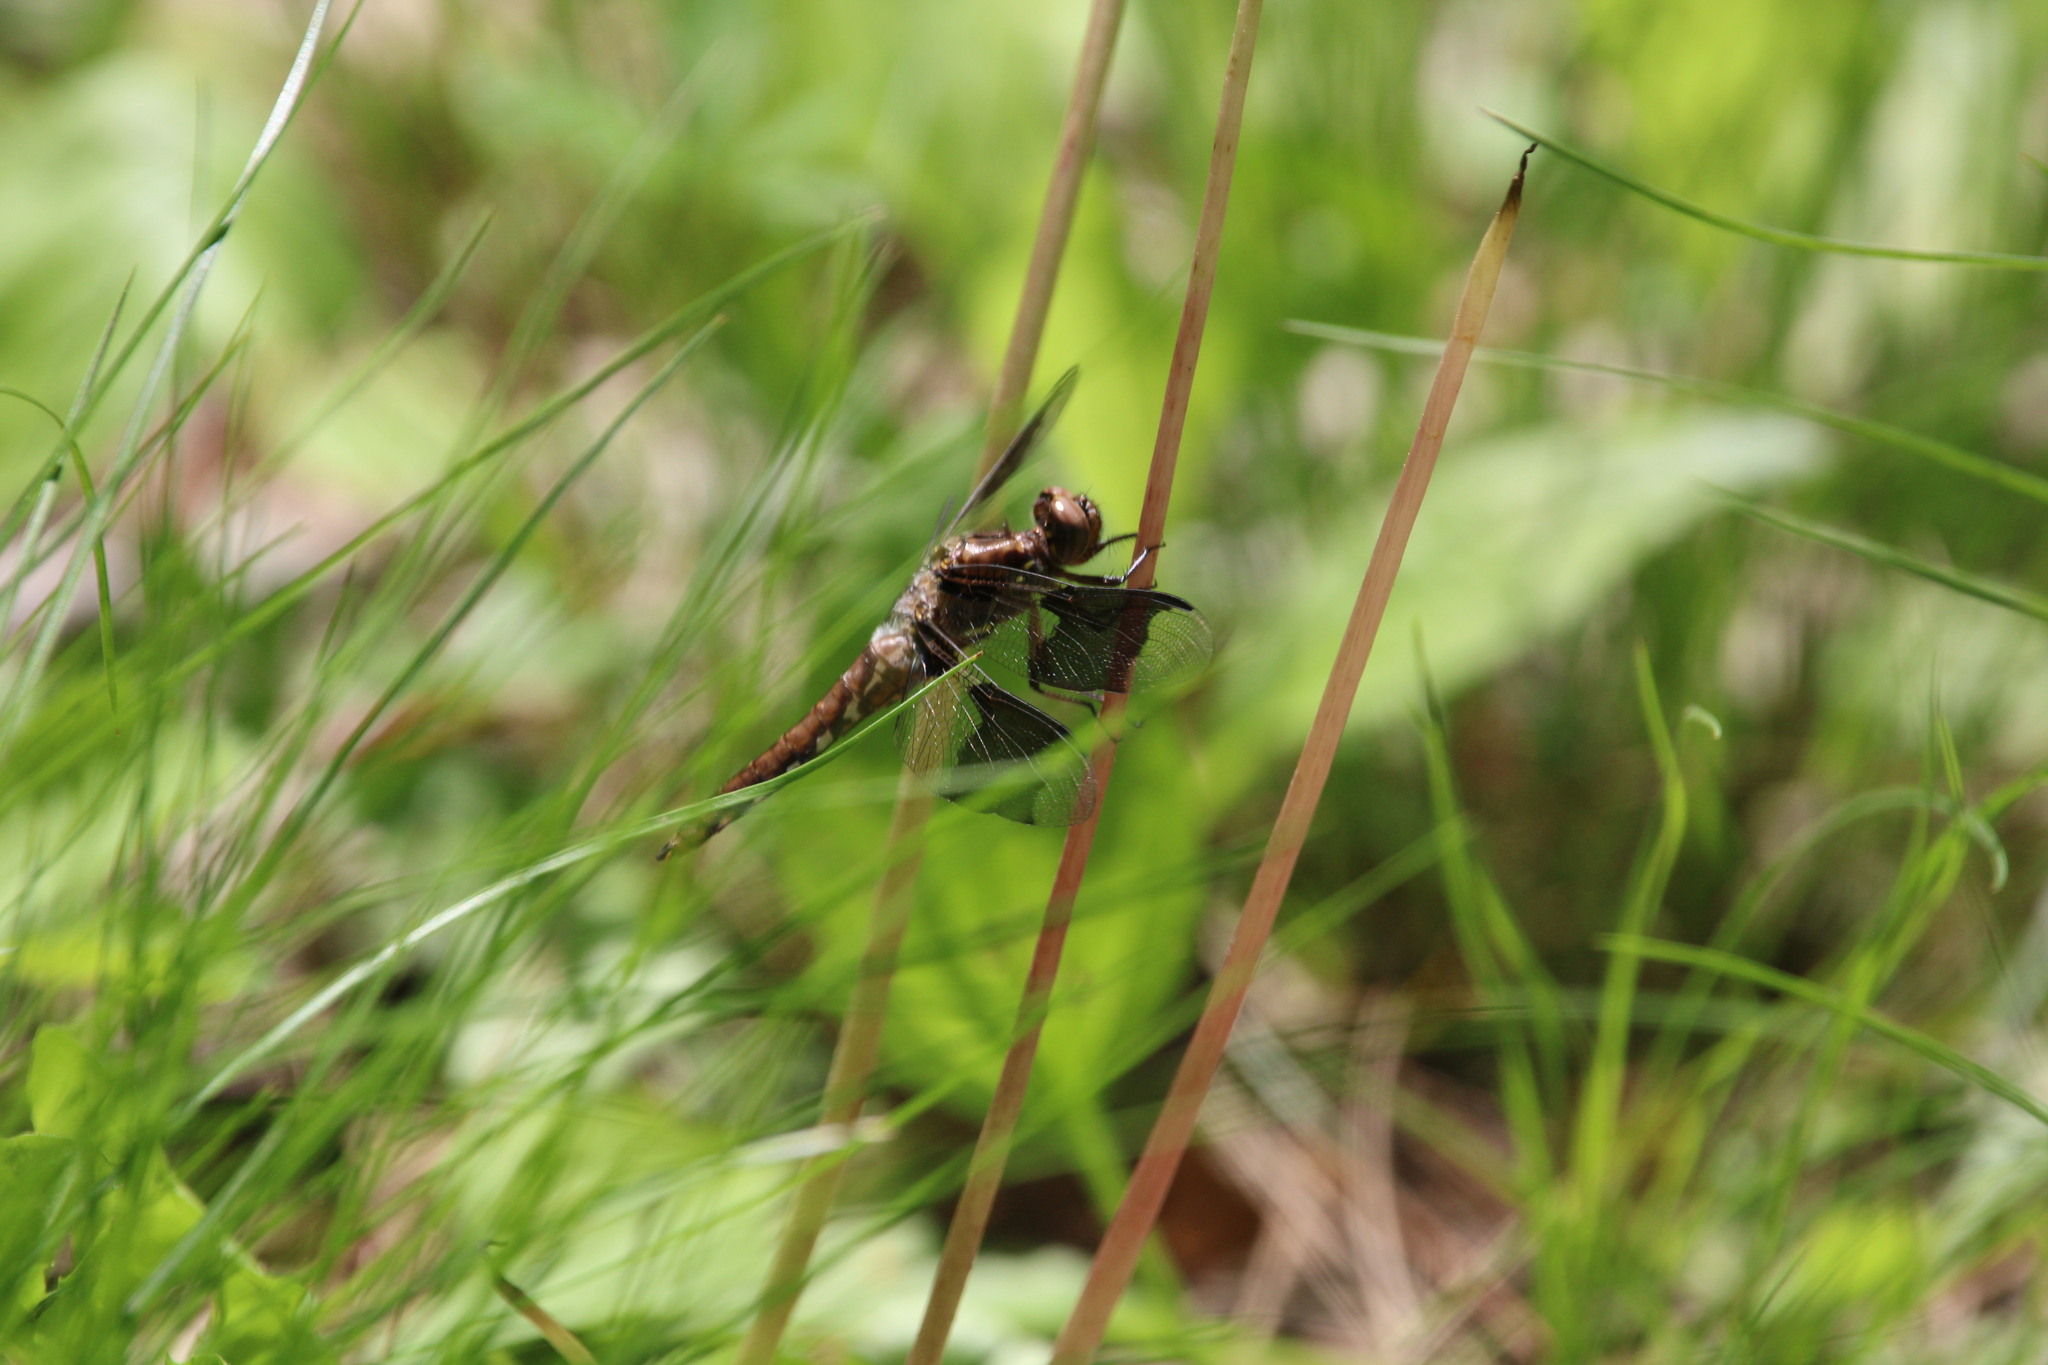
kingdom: Animalia
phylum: Arthropoda
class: Insecta
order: Odonata
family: Libellulidae
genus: Plathemis
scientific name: Plathemis lydia
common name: Common whitetail
